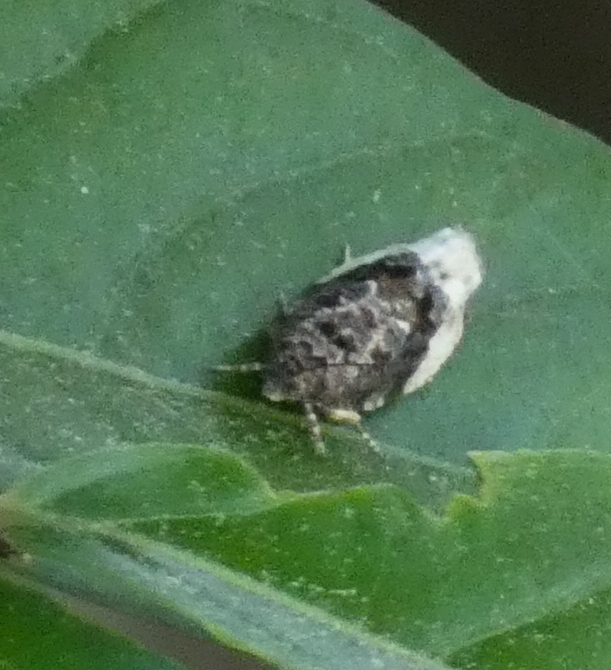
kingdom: Animalia
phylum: Arthropoda
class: Insecta
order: Lepidoptera
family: Tortricidae
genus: Hedya
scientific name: Hedya nubiferana
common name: Marbled orchard tortrix
